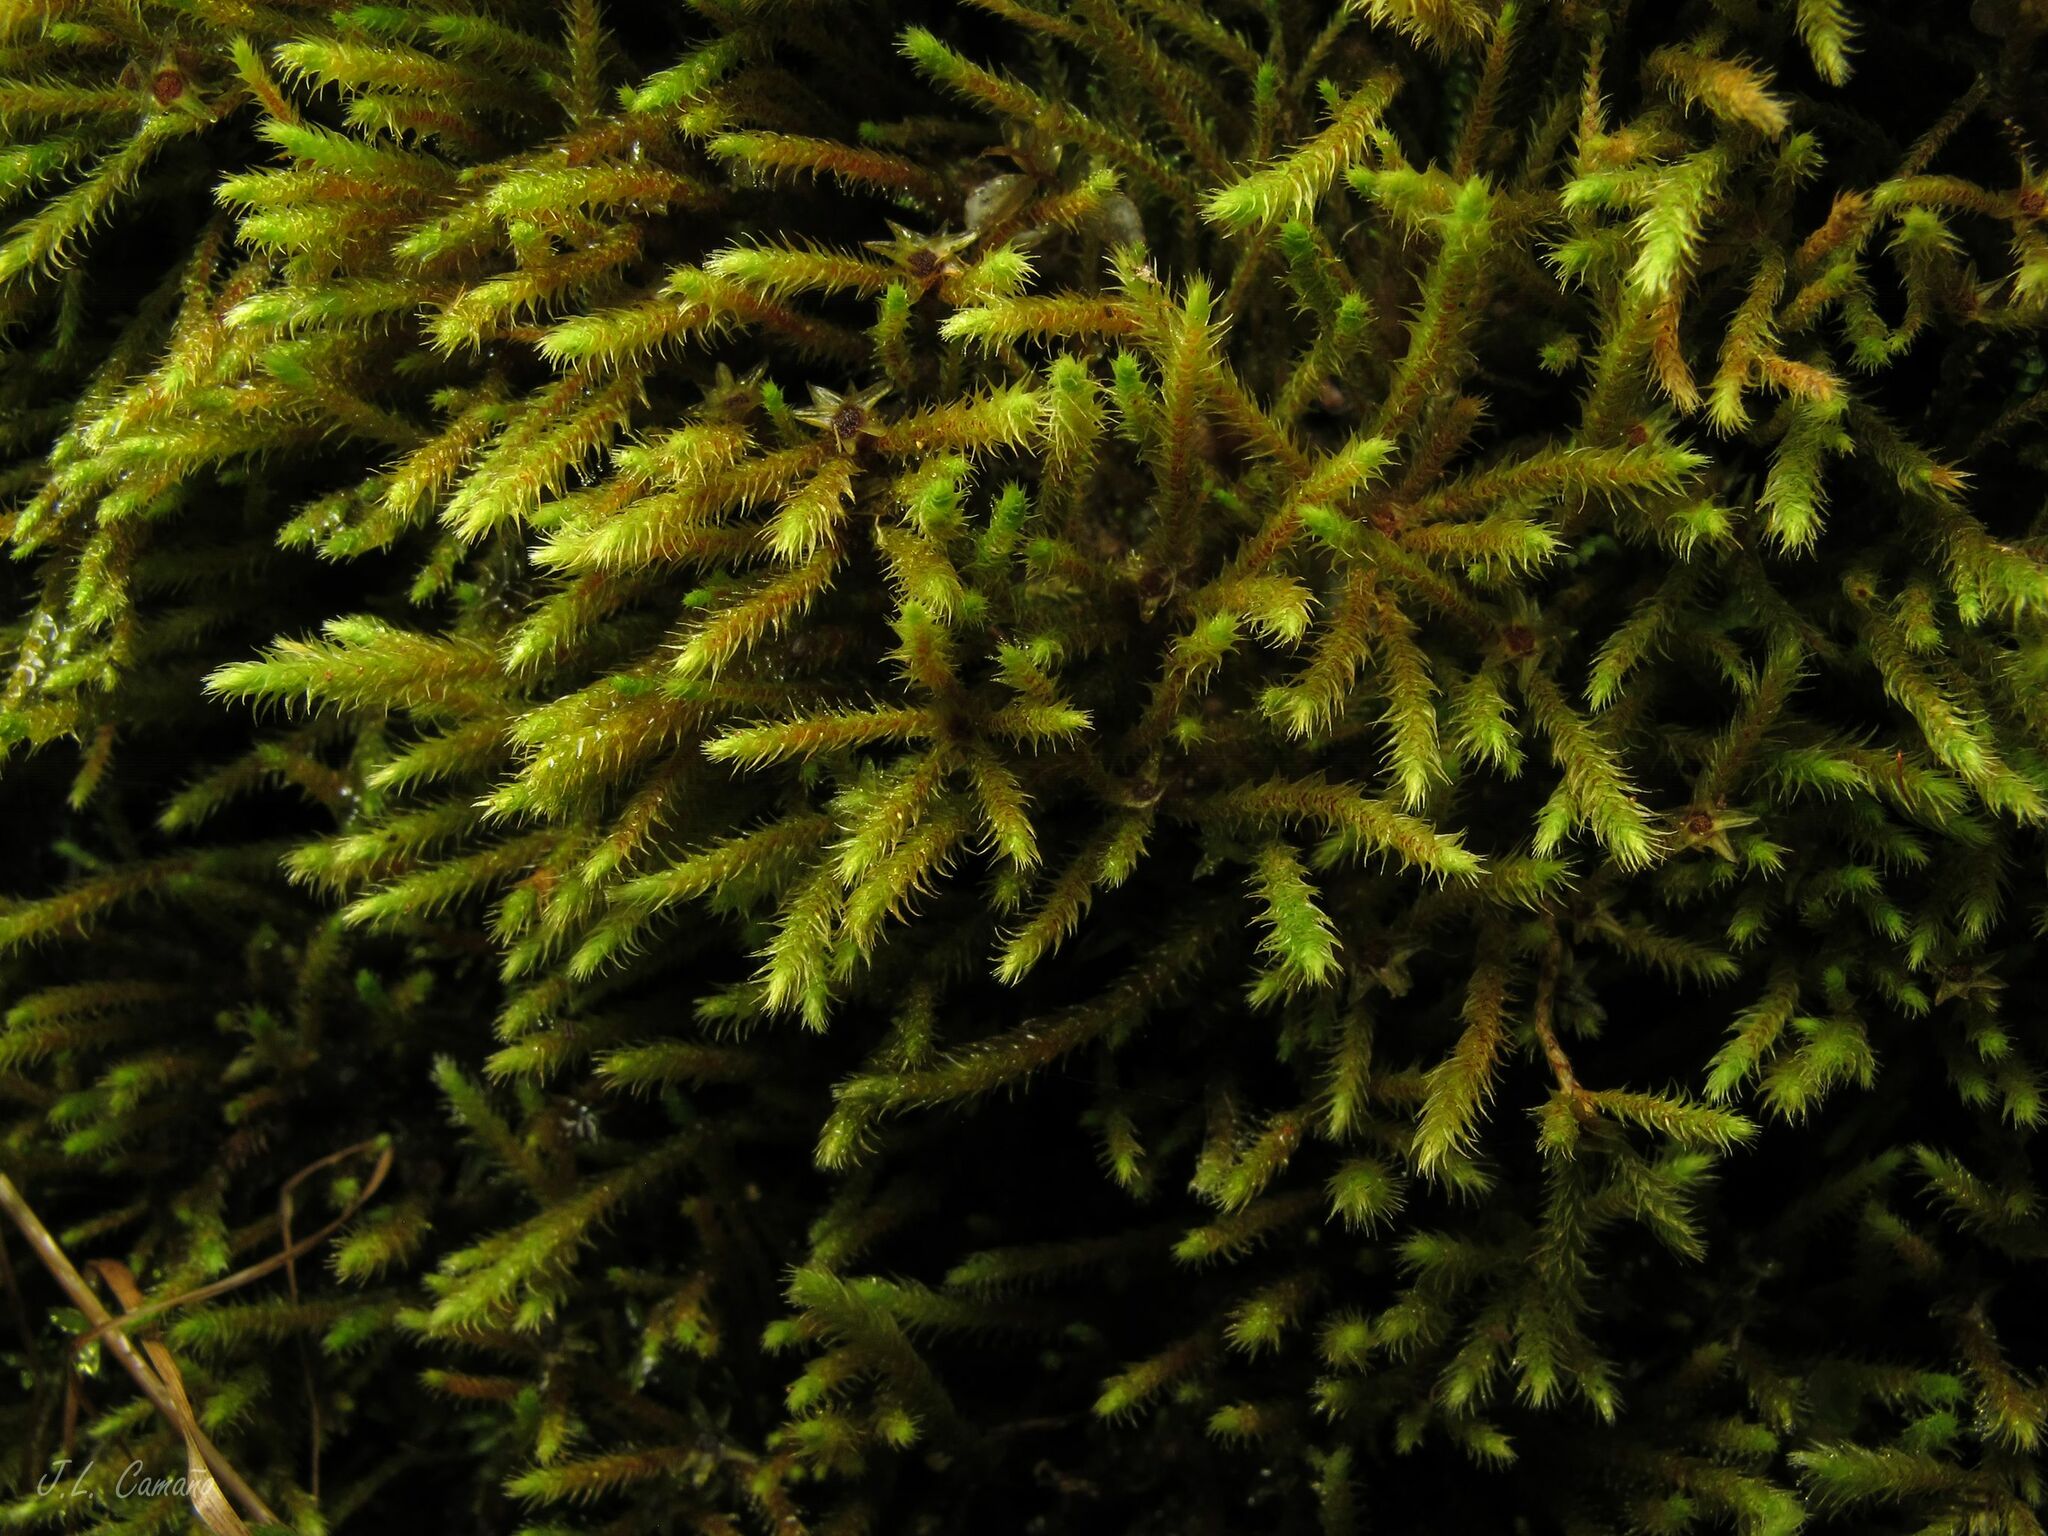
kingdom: Plantae
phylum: Bryophyta
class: Bryopsida
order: Bartramiales
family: Bartramiaceae
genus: Philonotis
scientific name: Philonotis fontana
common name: Fountain apple-moss
